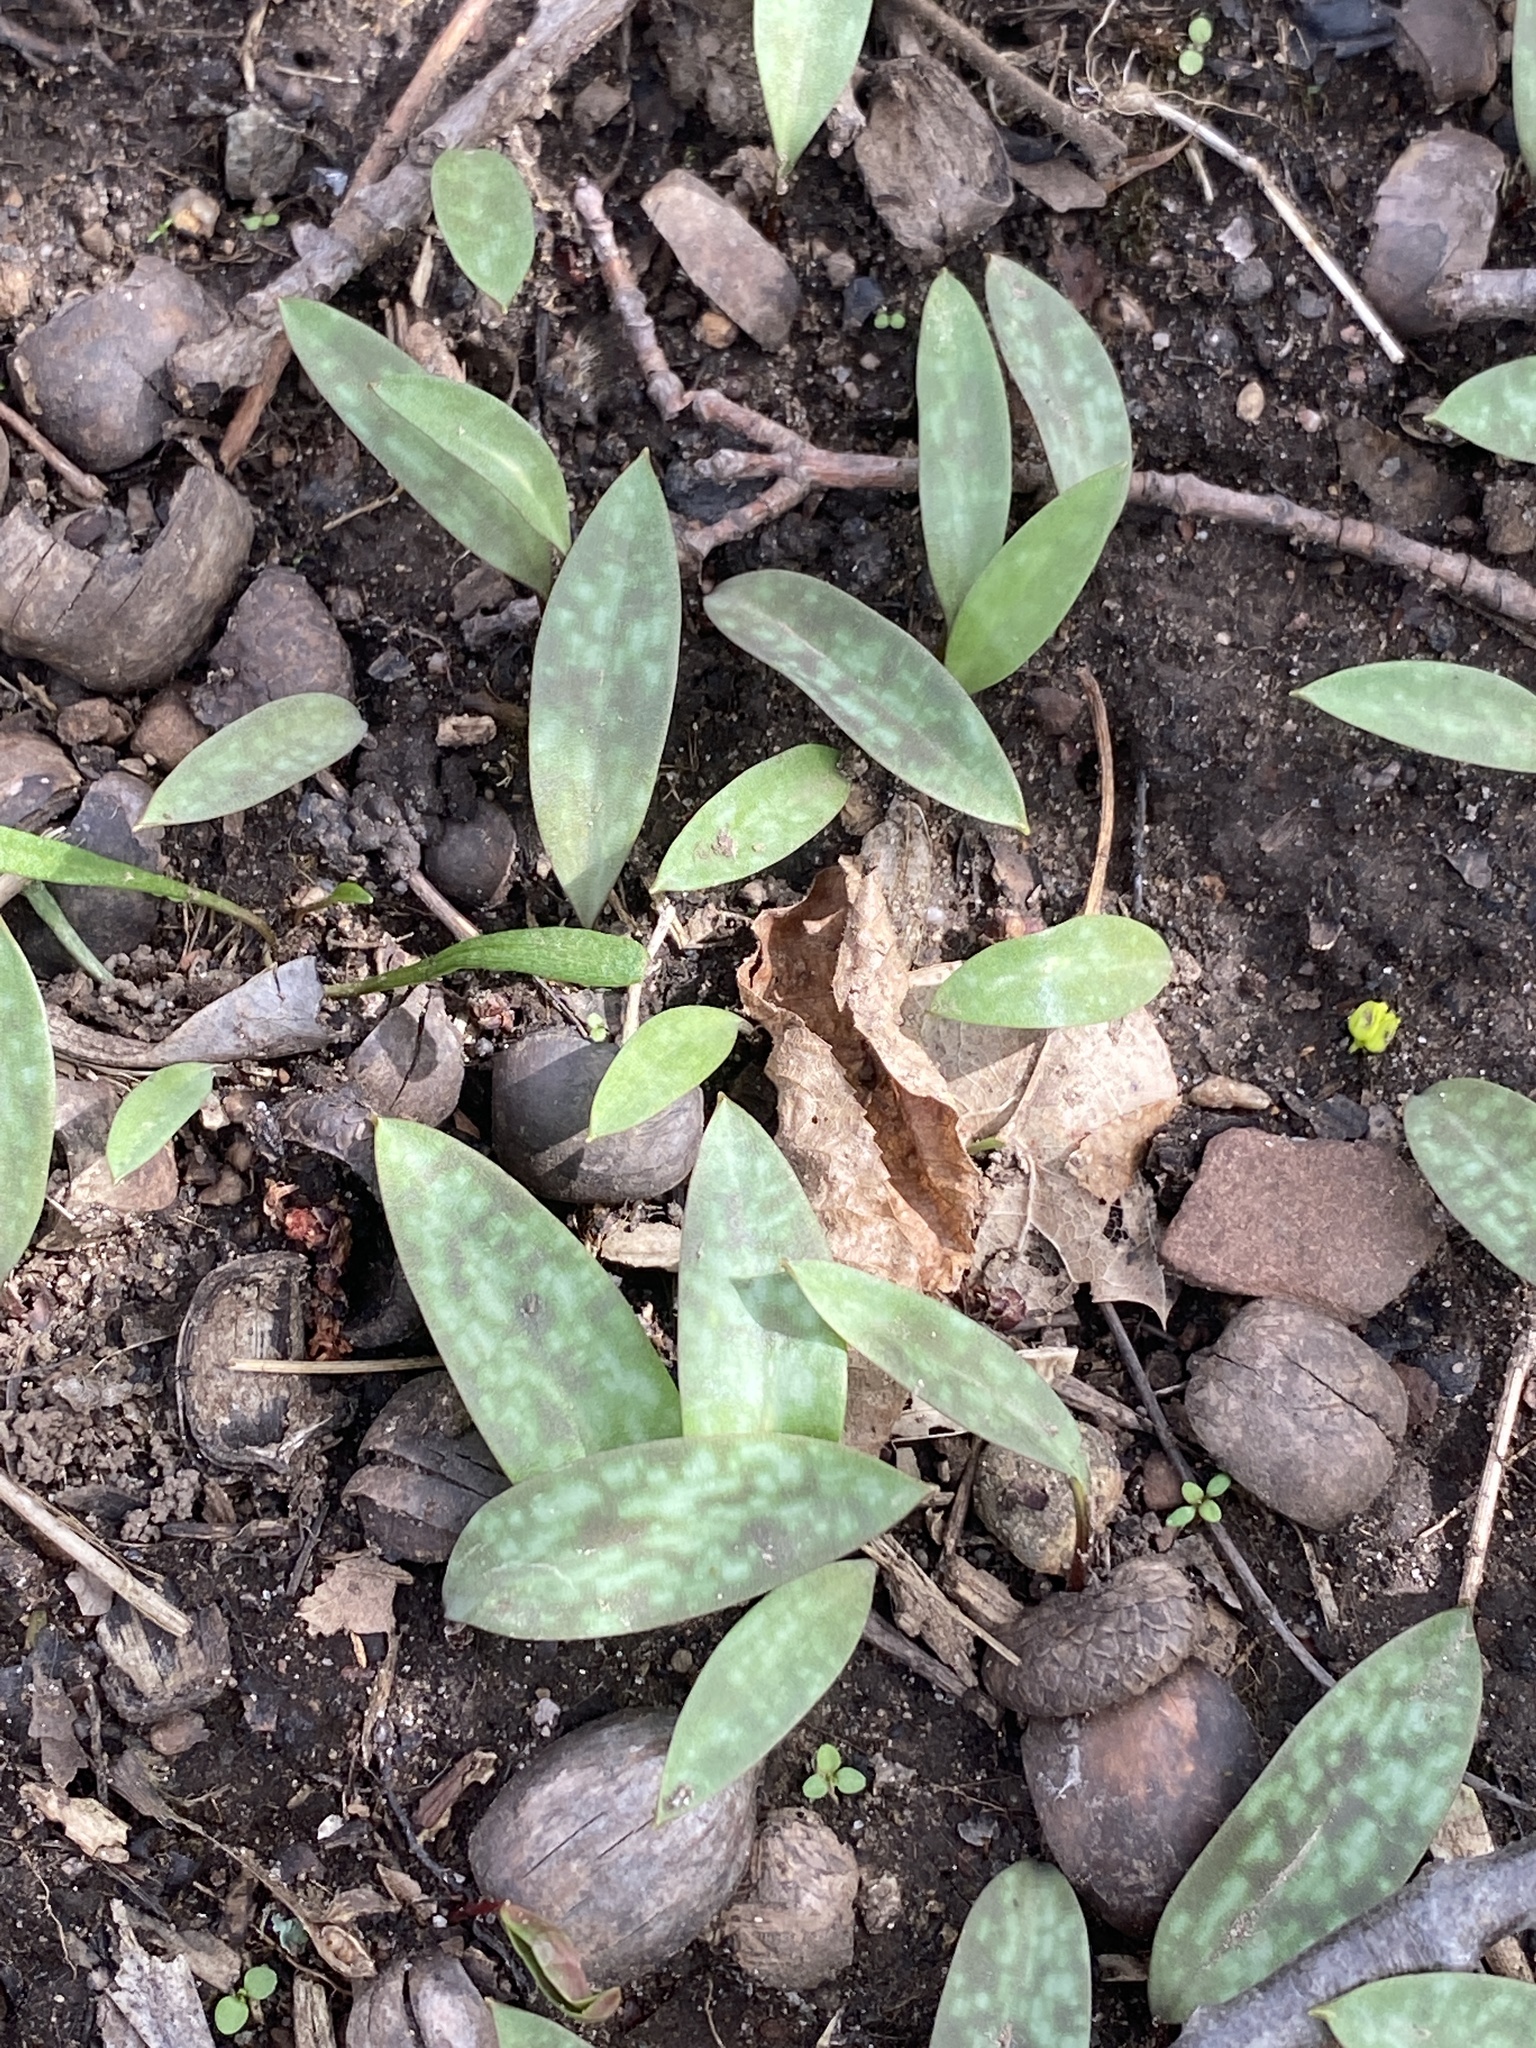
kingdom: Plantae
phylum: Tracheophyta
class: Liliopsida
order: Liliales
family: Liliaceae
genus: Erythronium
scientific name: Erythronium americanum
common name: Yellow adder's-tongue
